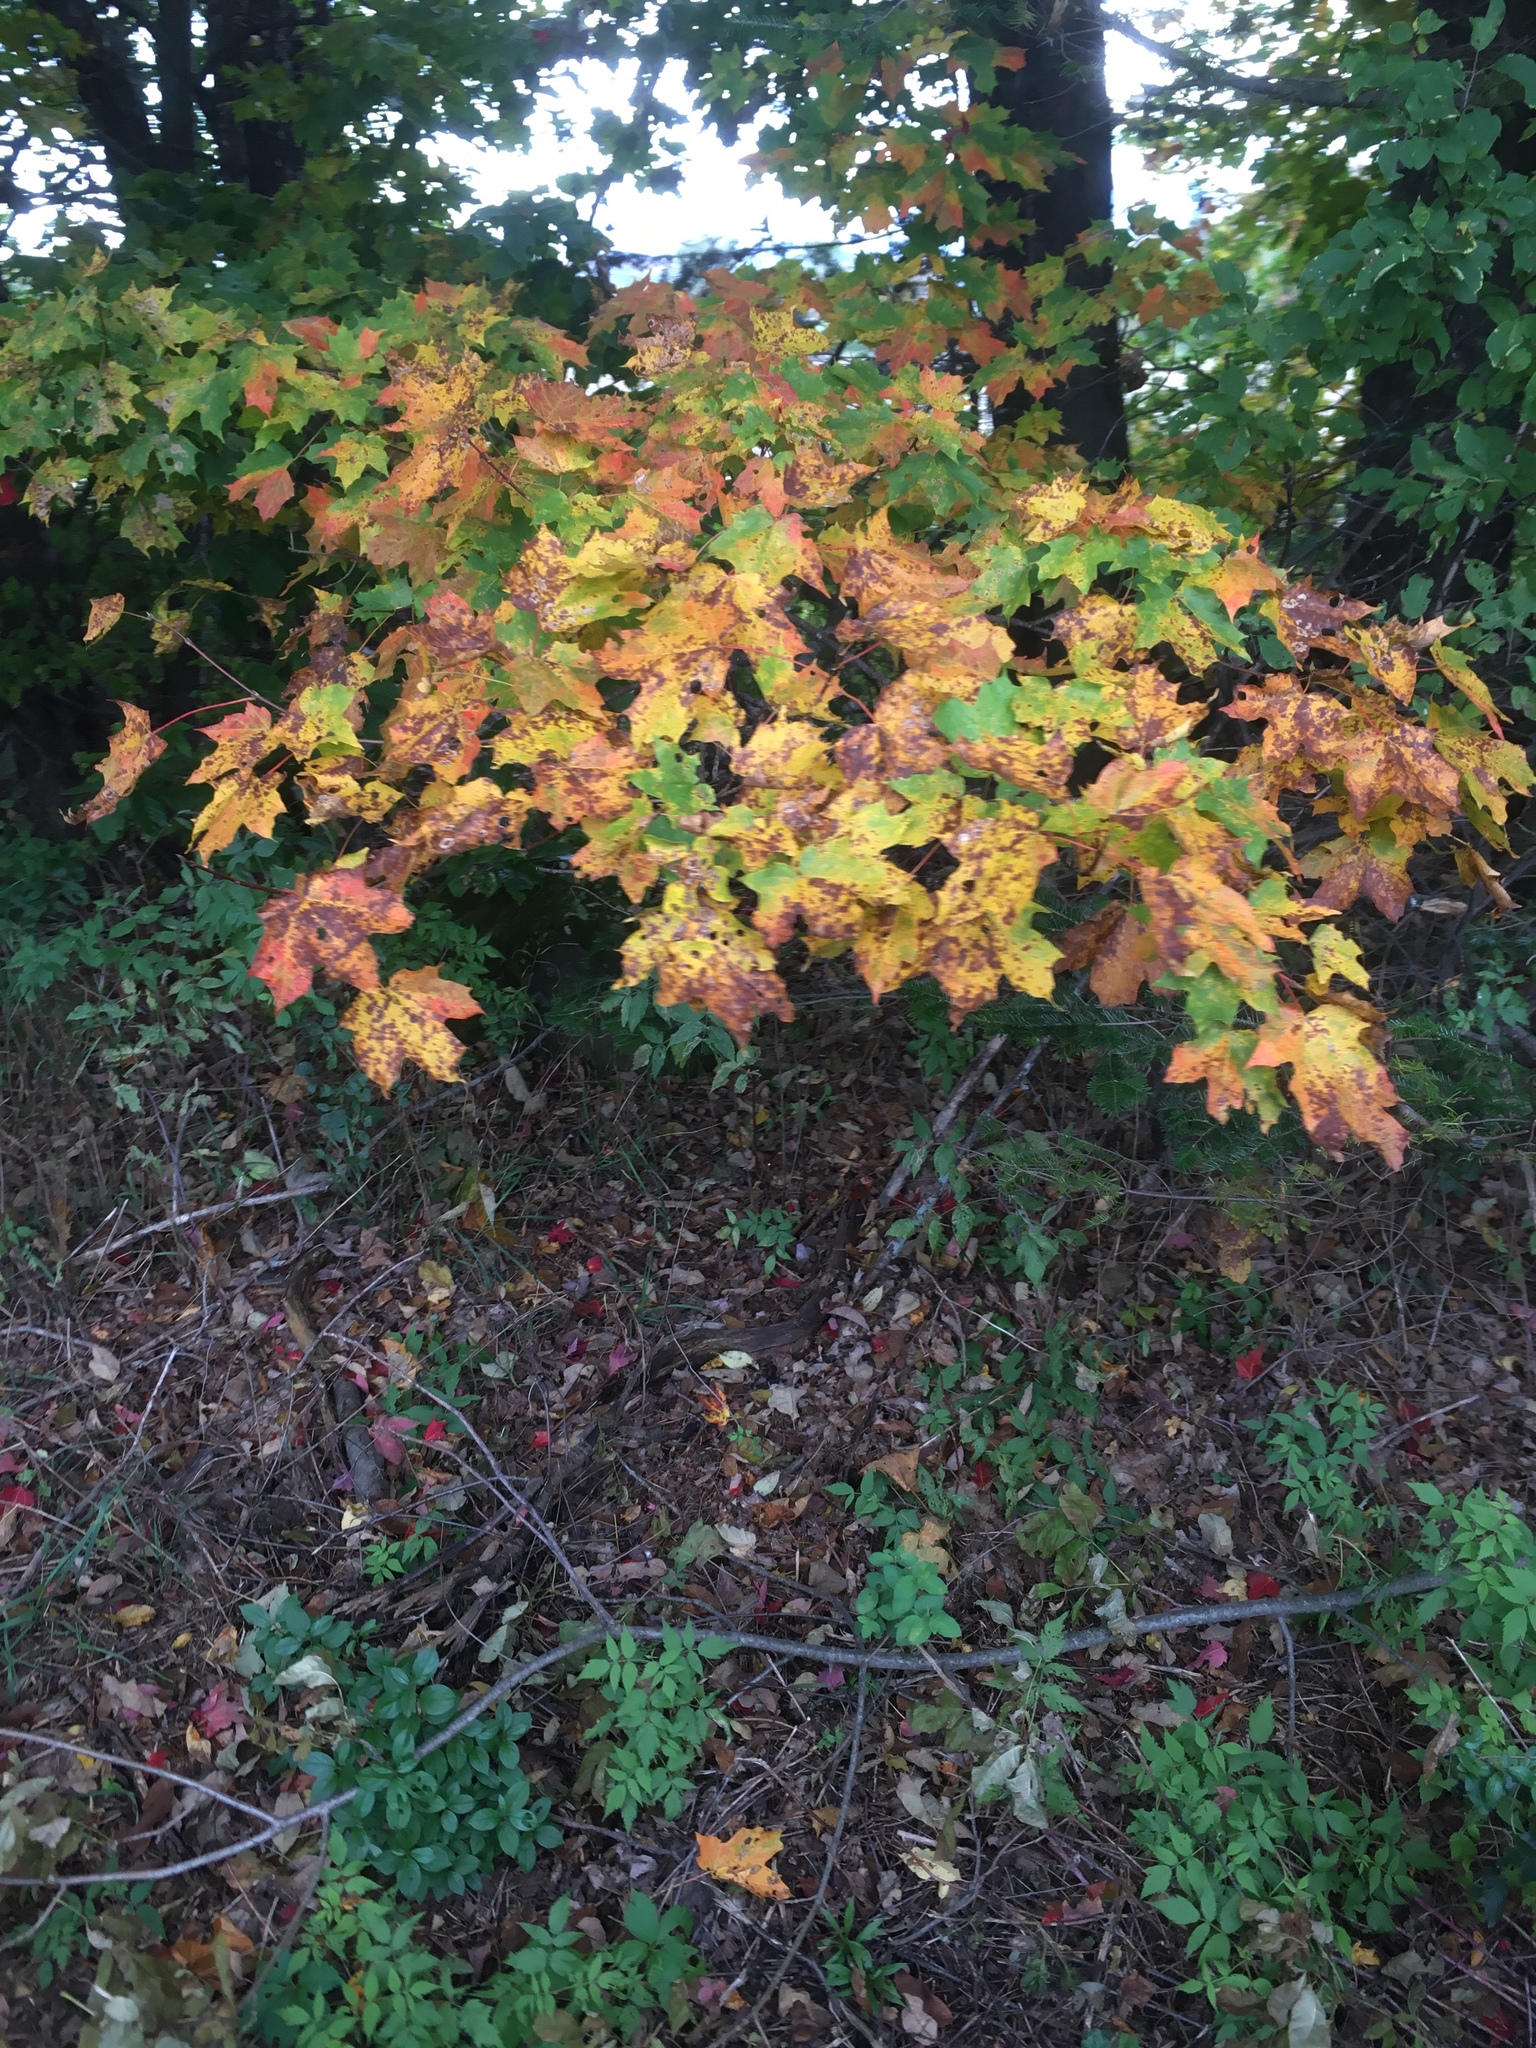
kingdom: Plantae
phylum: Tracheophyta
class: Magnoliopsida
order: Sapindales
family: Sapindaceae
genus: Acer
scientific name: Acer saccharum
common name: Sugar maple
